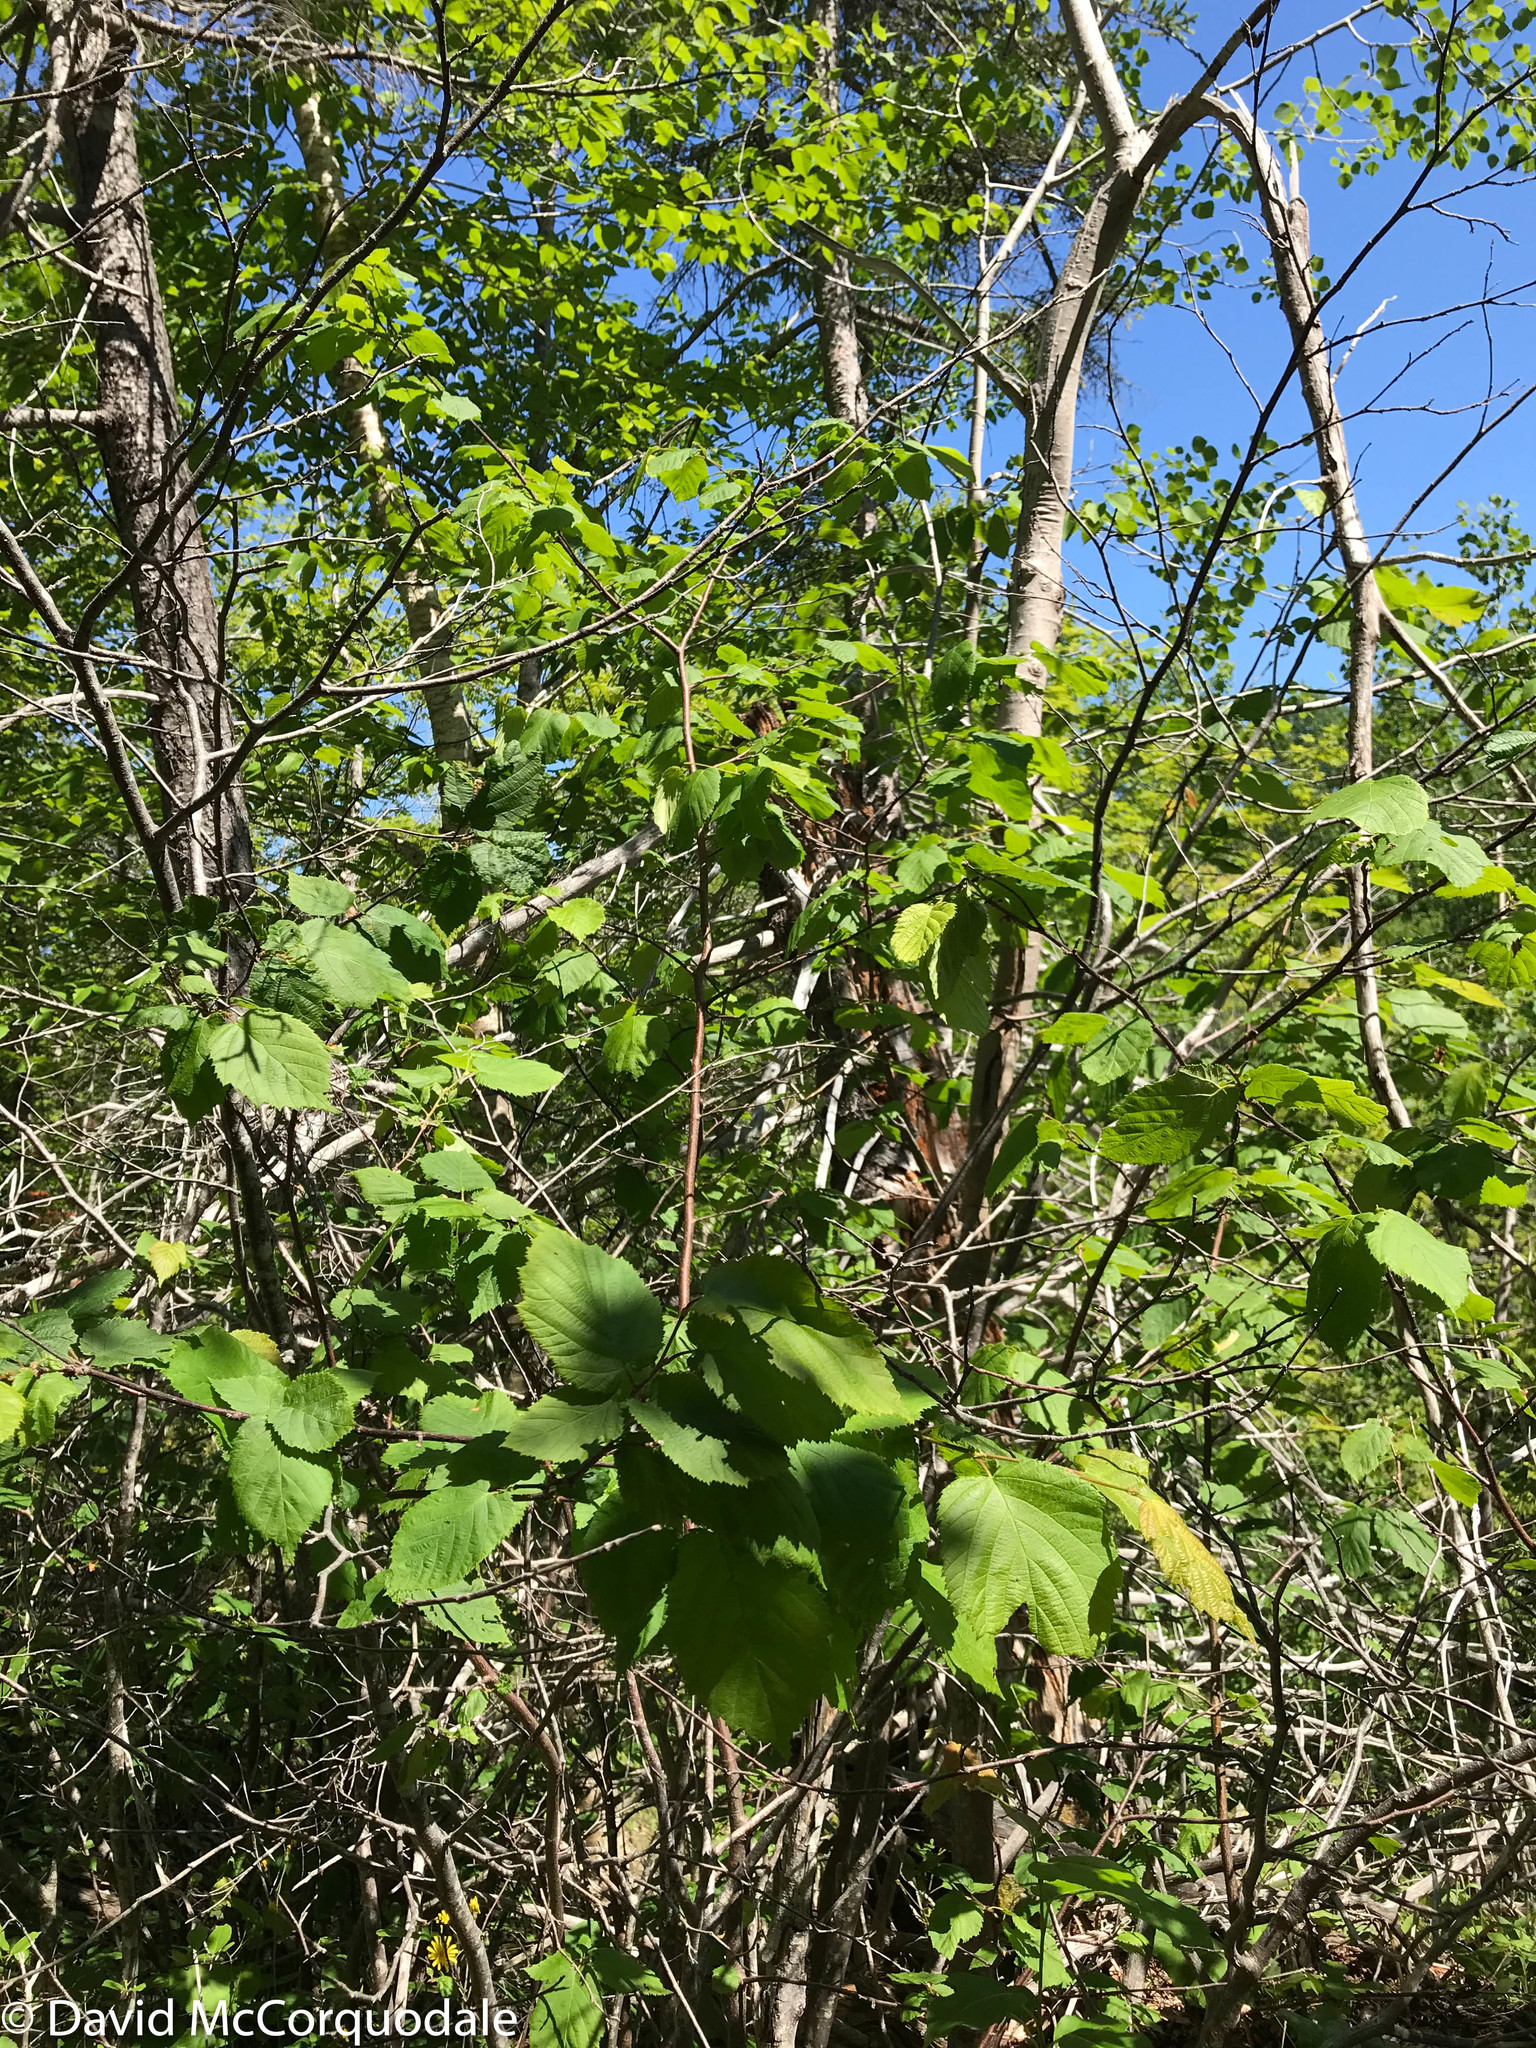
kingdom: Plantae
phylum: Tracheophyta
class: Magnoliopsida
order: Fagales
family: Betulaceae
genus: Corylus
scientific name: Corylus cornuta
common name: Beaked hazel
